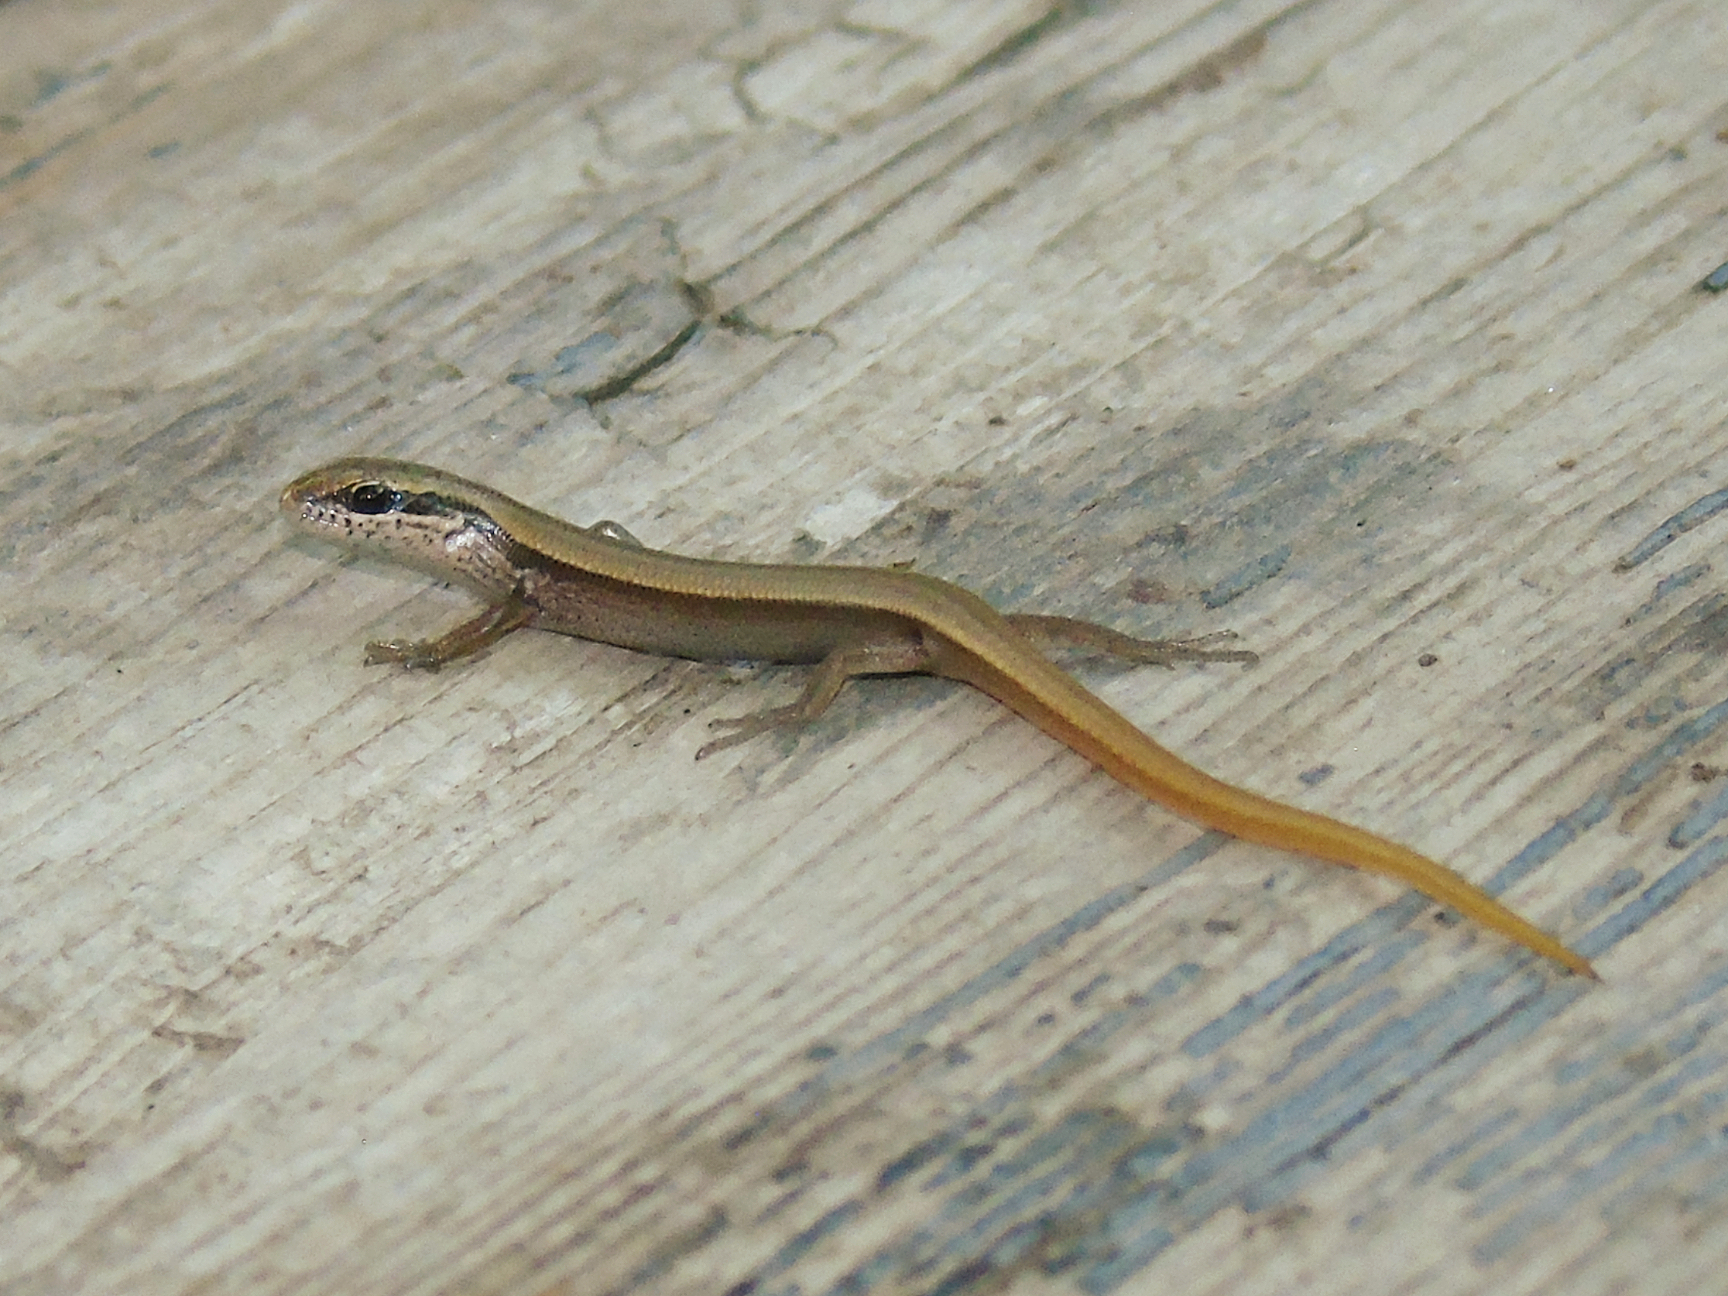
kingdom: Animalia
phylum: Chordata
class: Squamata
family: Scincidae
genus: Ablepharus
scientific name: Ablepharus deserti
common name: Desert lidless skink
